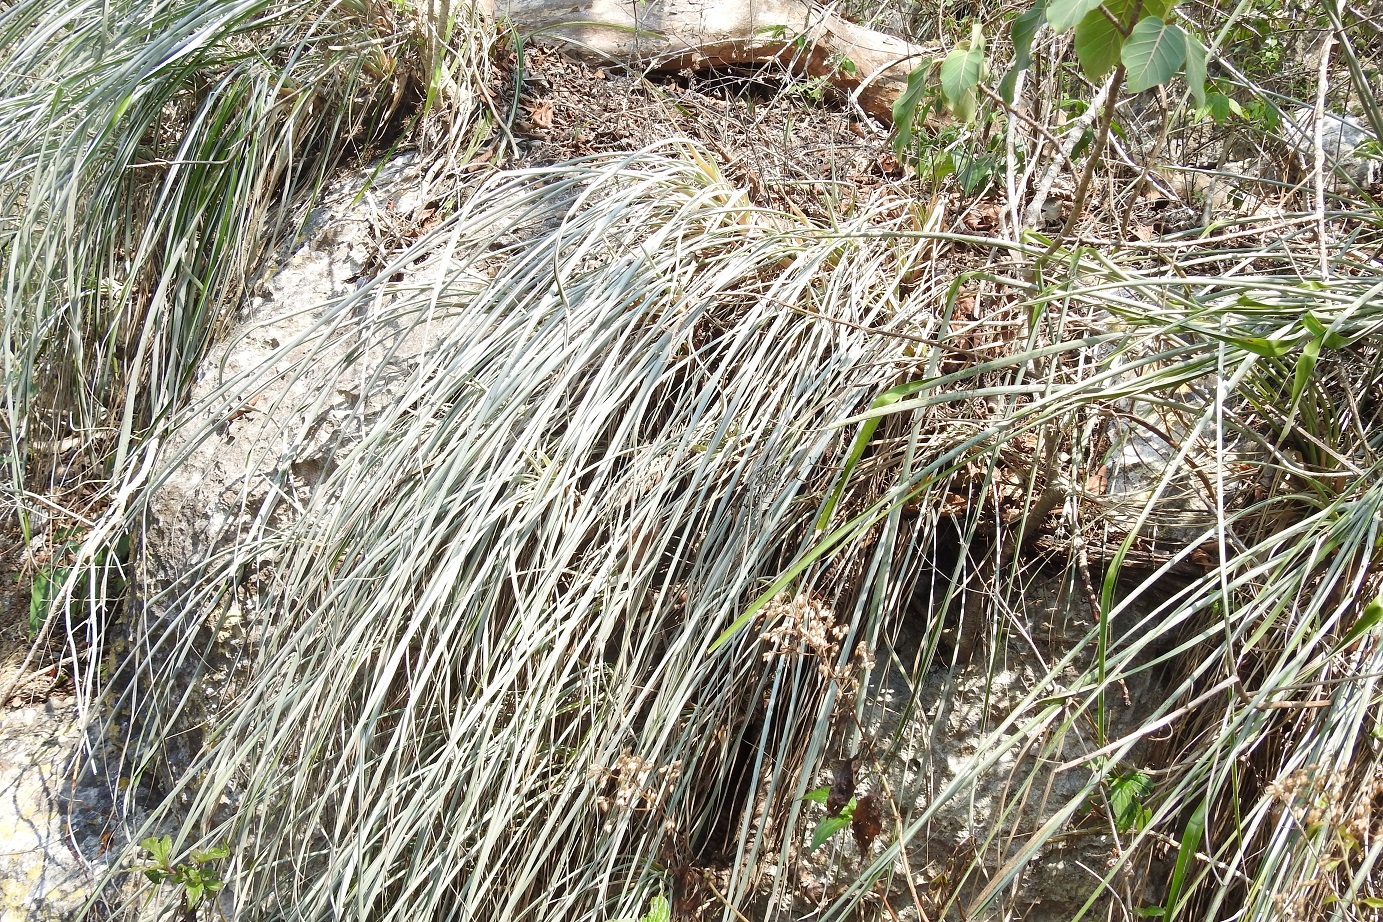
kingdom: Plantae
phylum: Tracheophyta
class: Liliopsida
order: Poales
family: Bromeliaceae
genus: Pitcairnia
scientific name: Pitcairnia breedlovei
